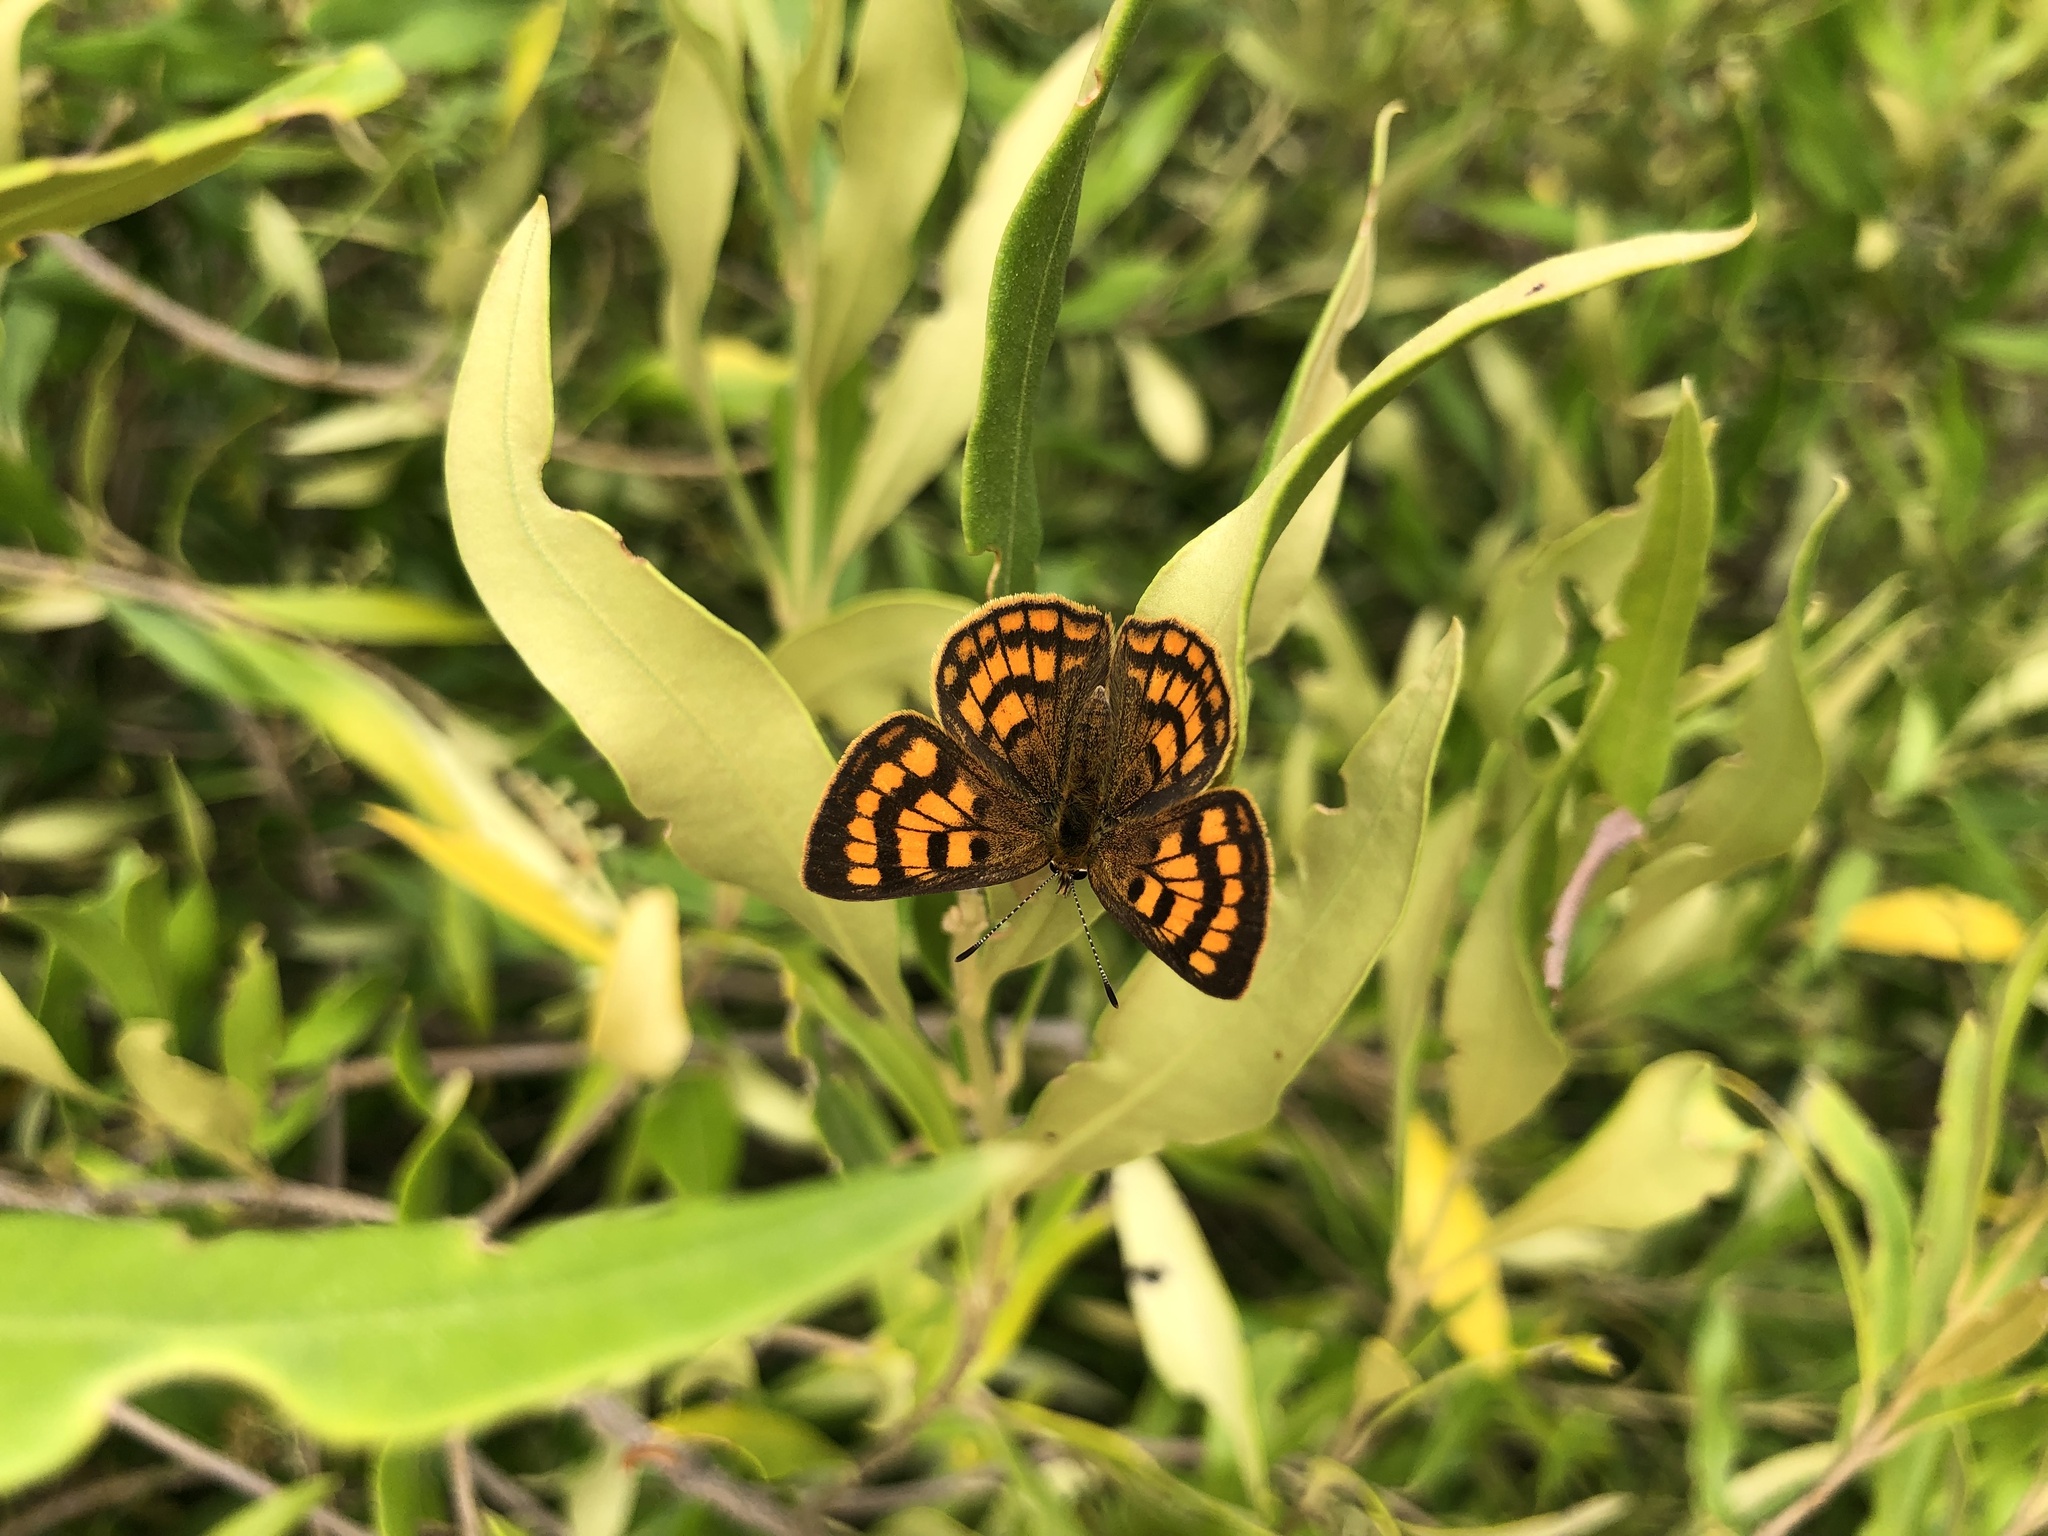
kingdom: Animalia
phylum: Arthropoda
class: Insecta
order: Lepidoptera
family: Lycaenidae
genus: Lycaena
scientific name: Lycaena salustius
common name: North island coastal copper
